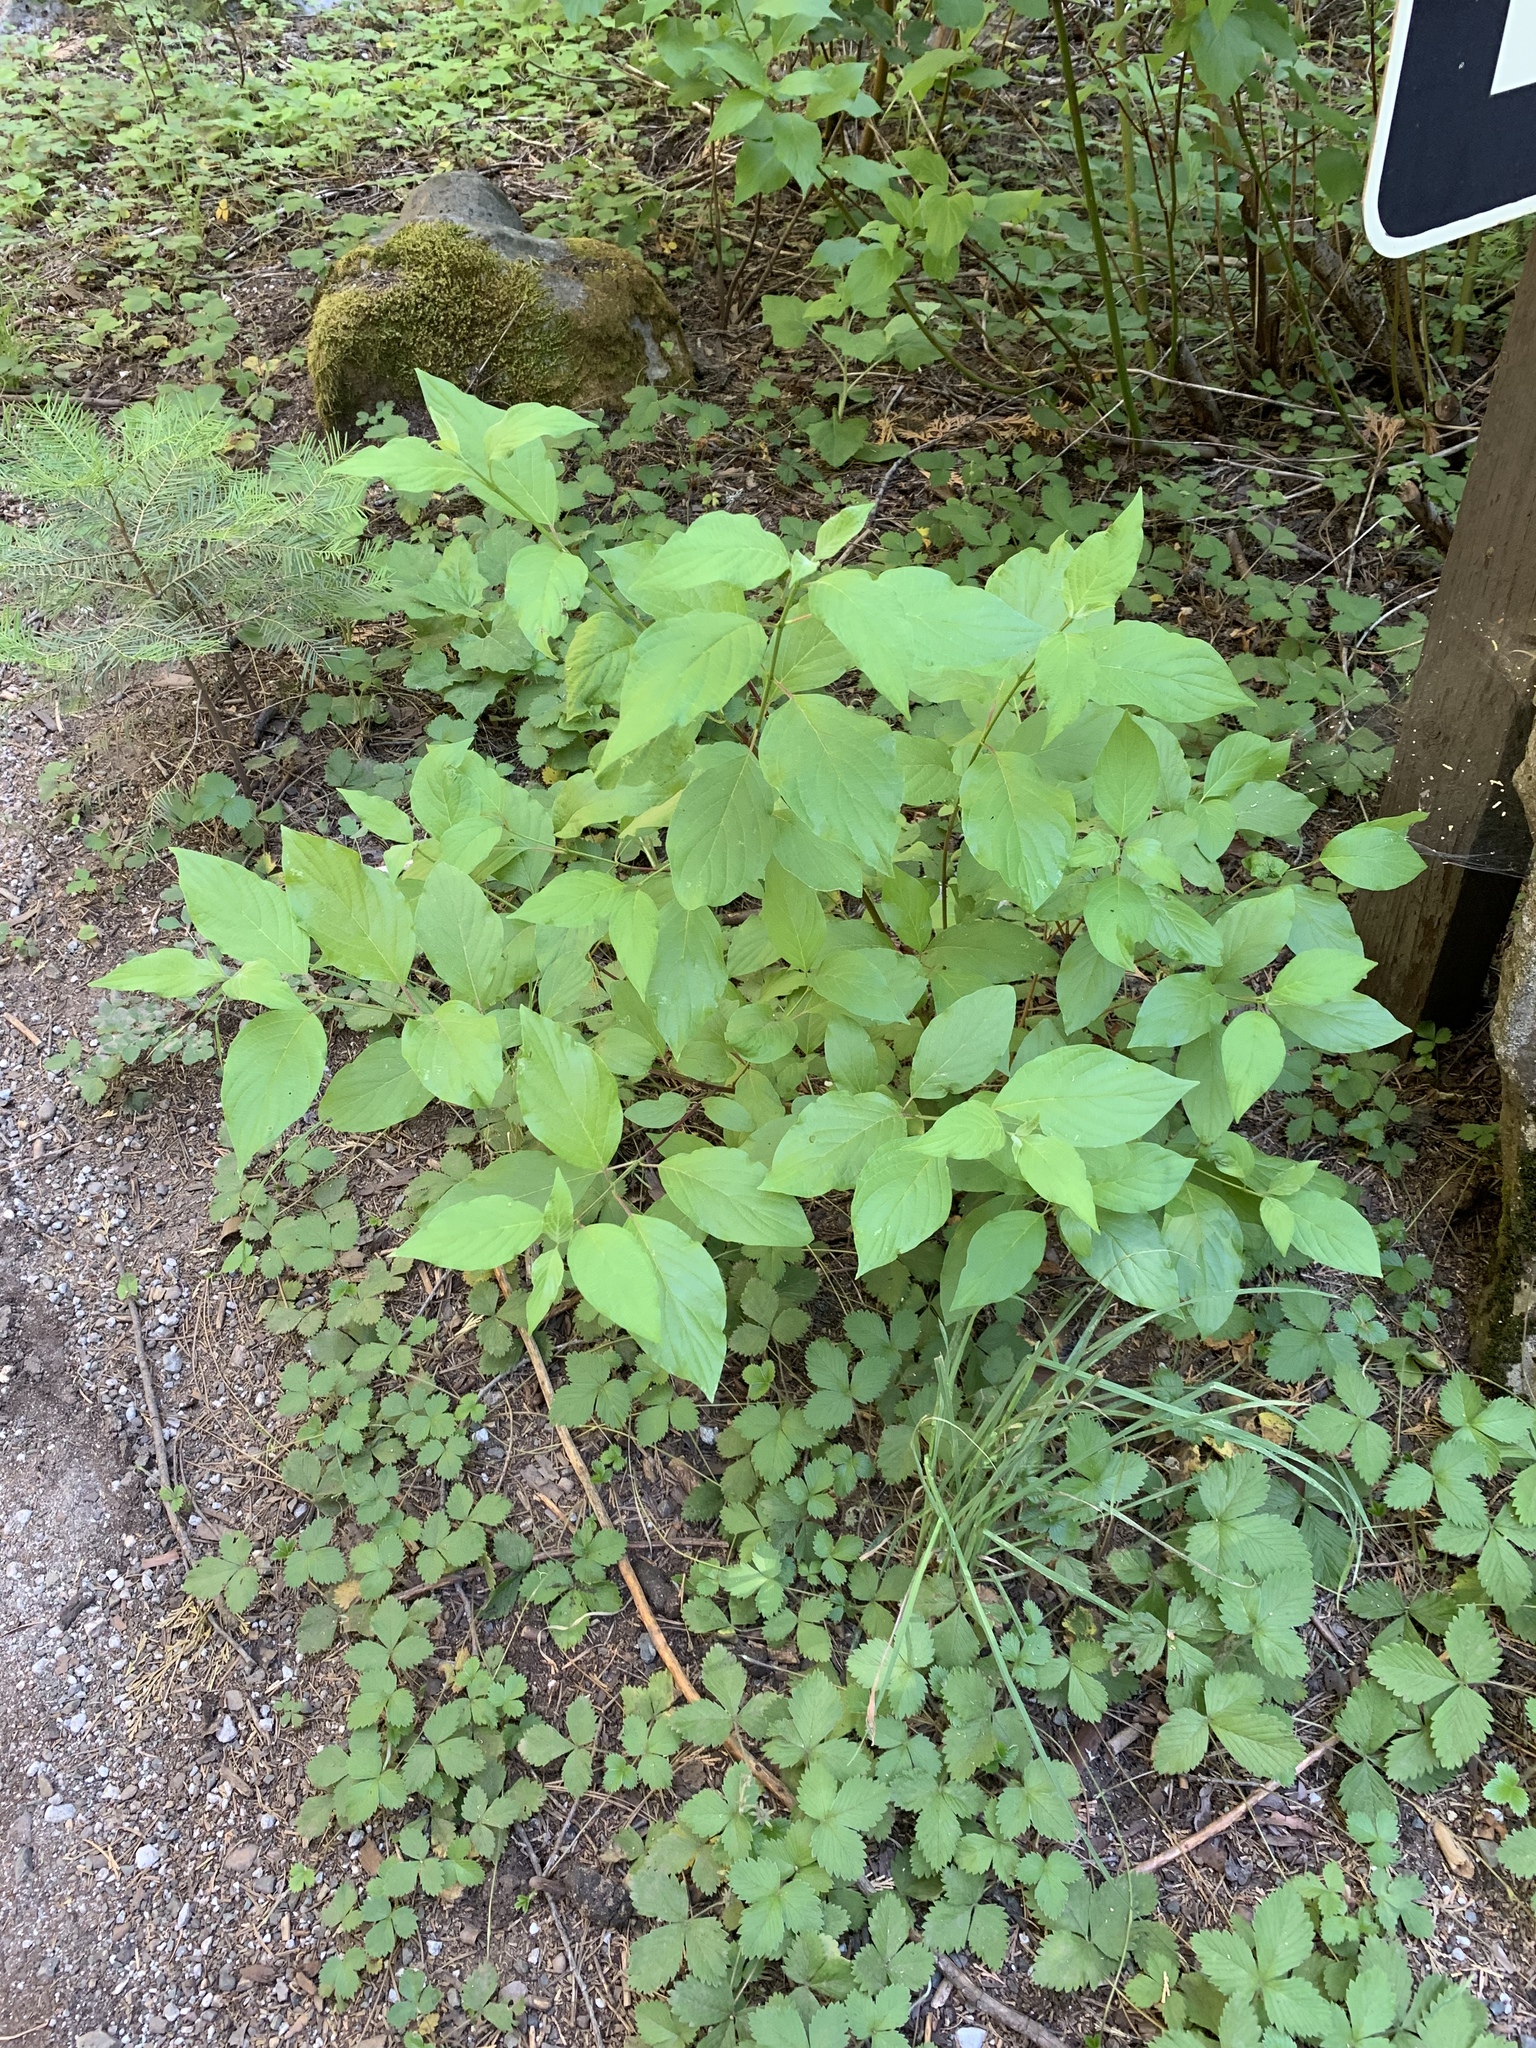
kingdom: Plantae
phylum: Tracheophyta
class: Magnoliopsida
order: Cornales
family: Cornaceae
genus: Cornus
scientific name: Cornus nuttallii
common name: Pacific dogwood
